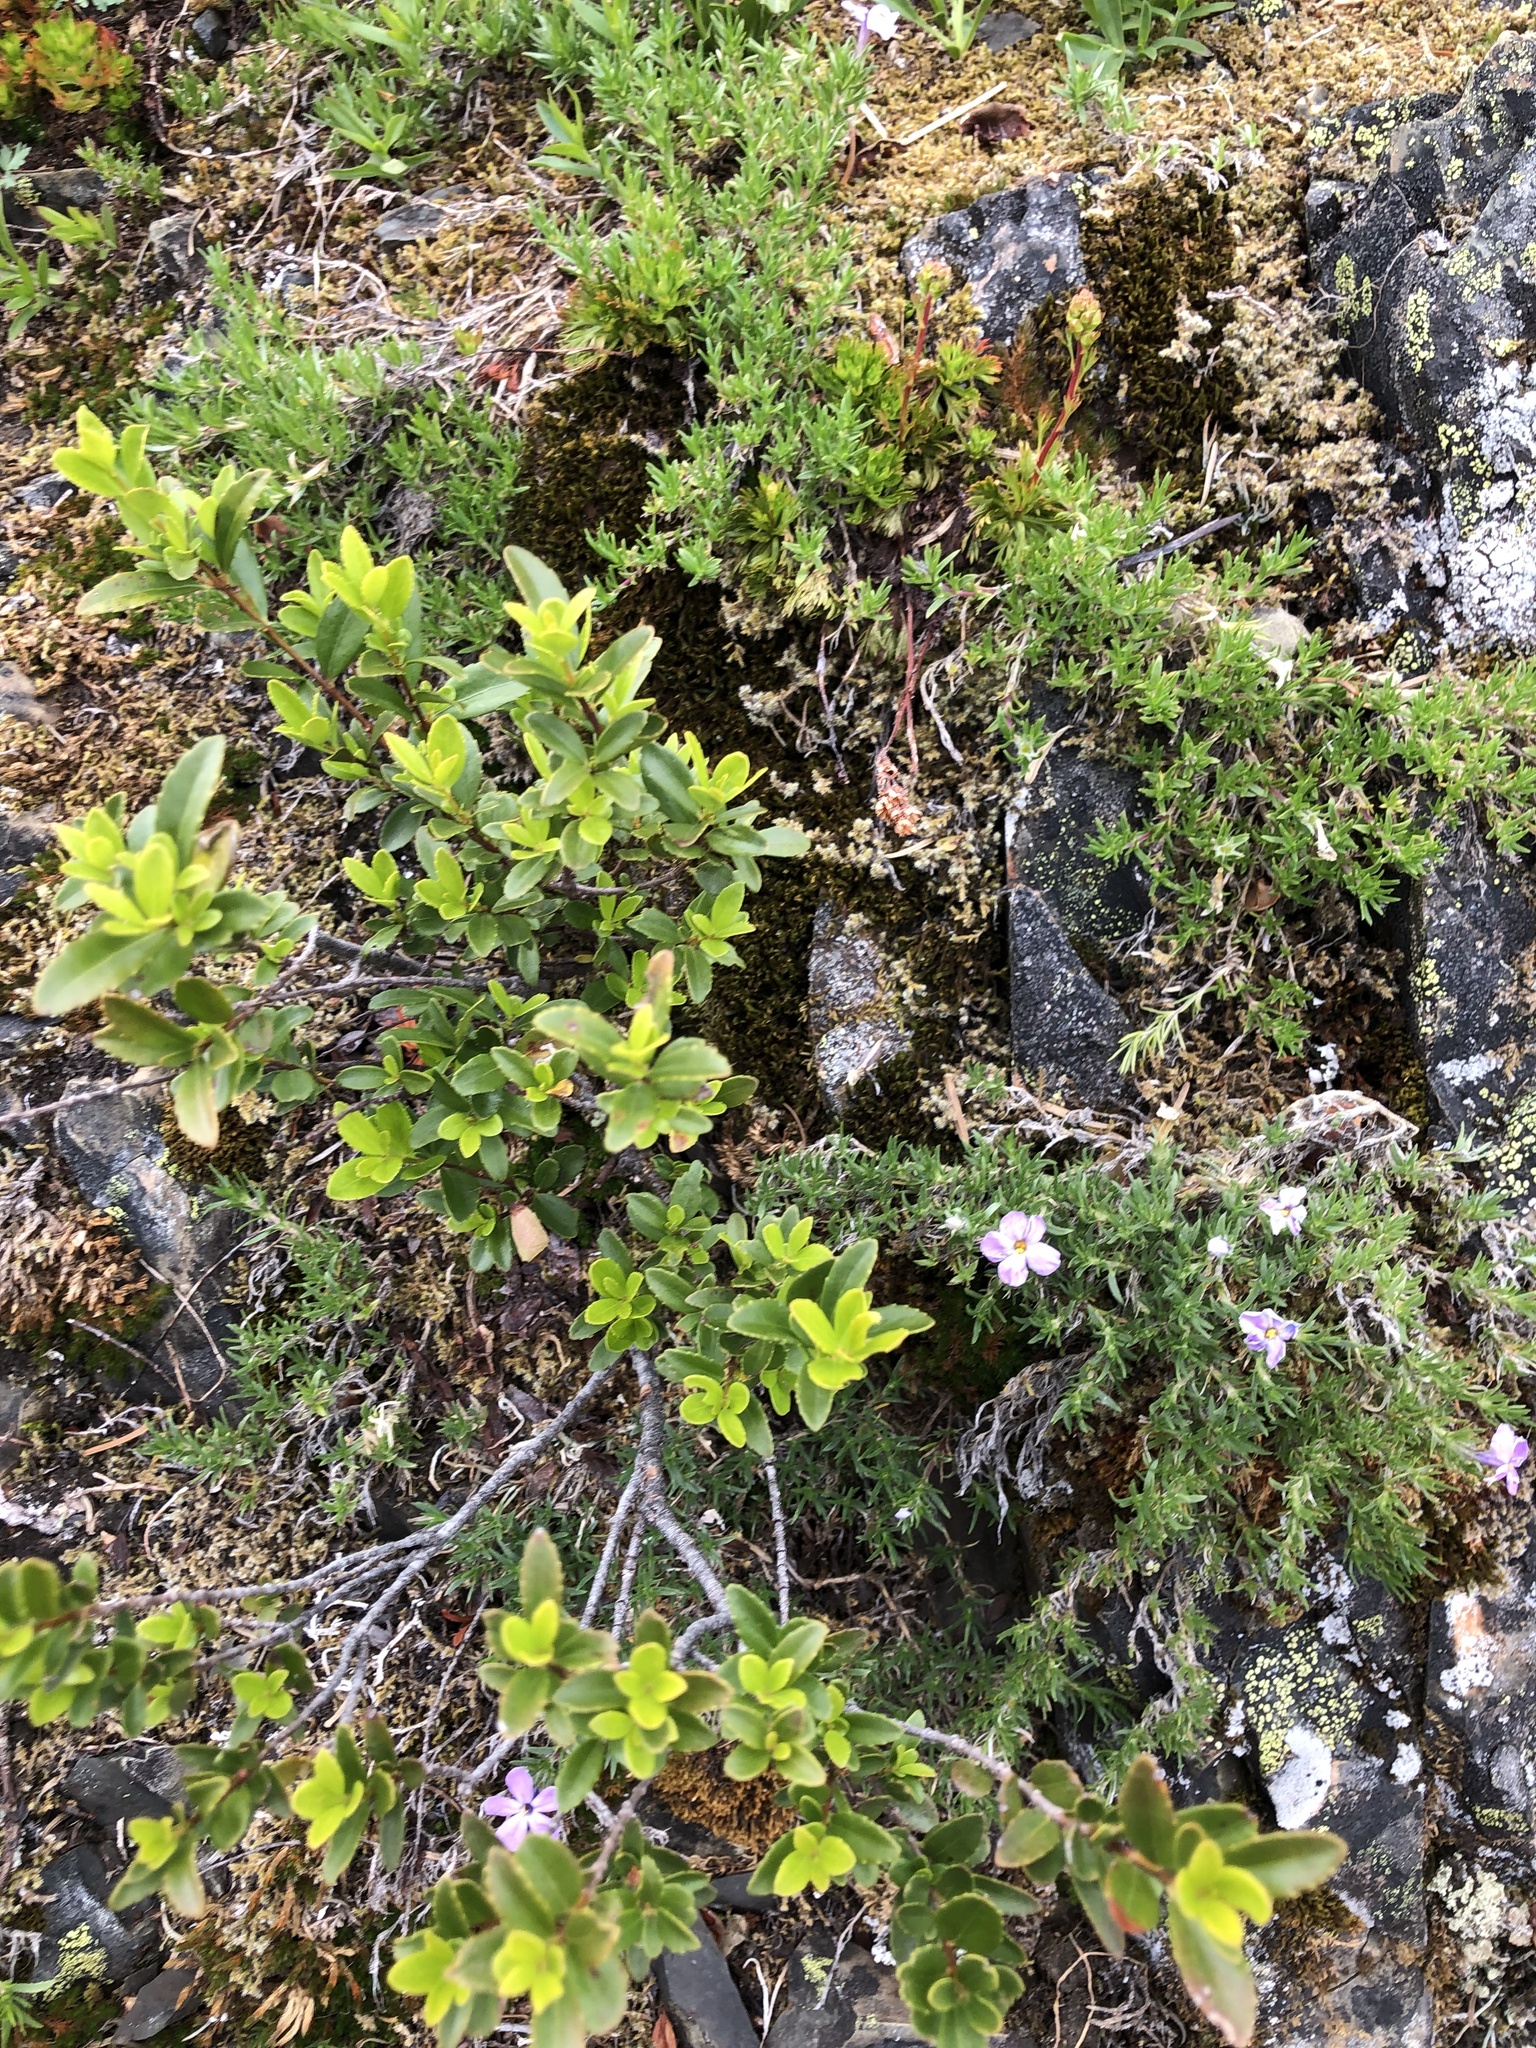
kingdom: Plantae
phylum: Tracheophyta
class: Magnoliopsida
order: Celastrales
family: Celastraceae
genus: Paxistima
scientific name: Paxistima myrsinites
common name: Mountain-lover
